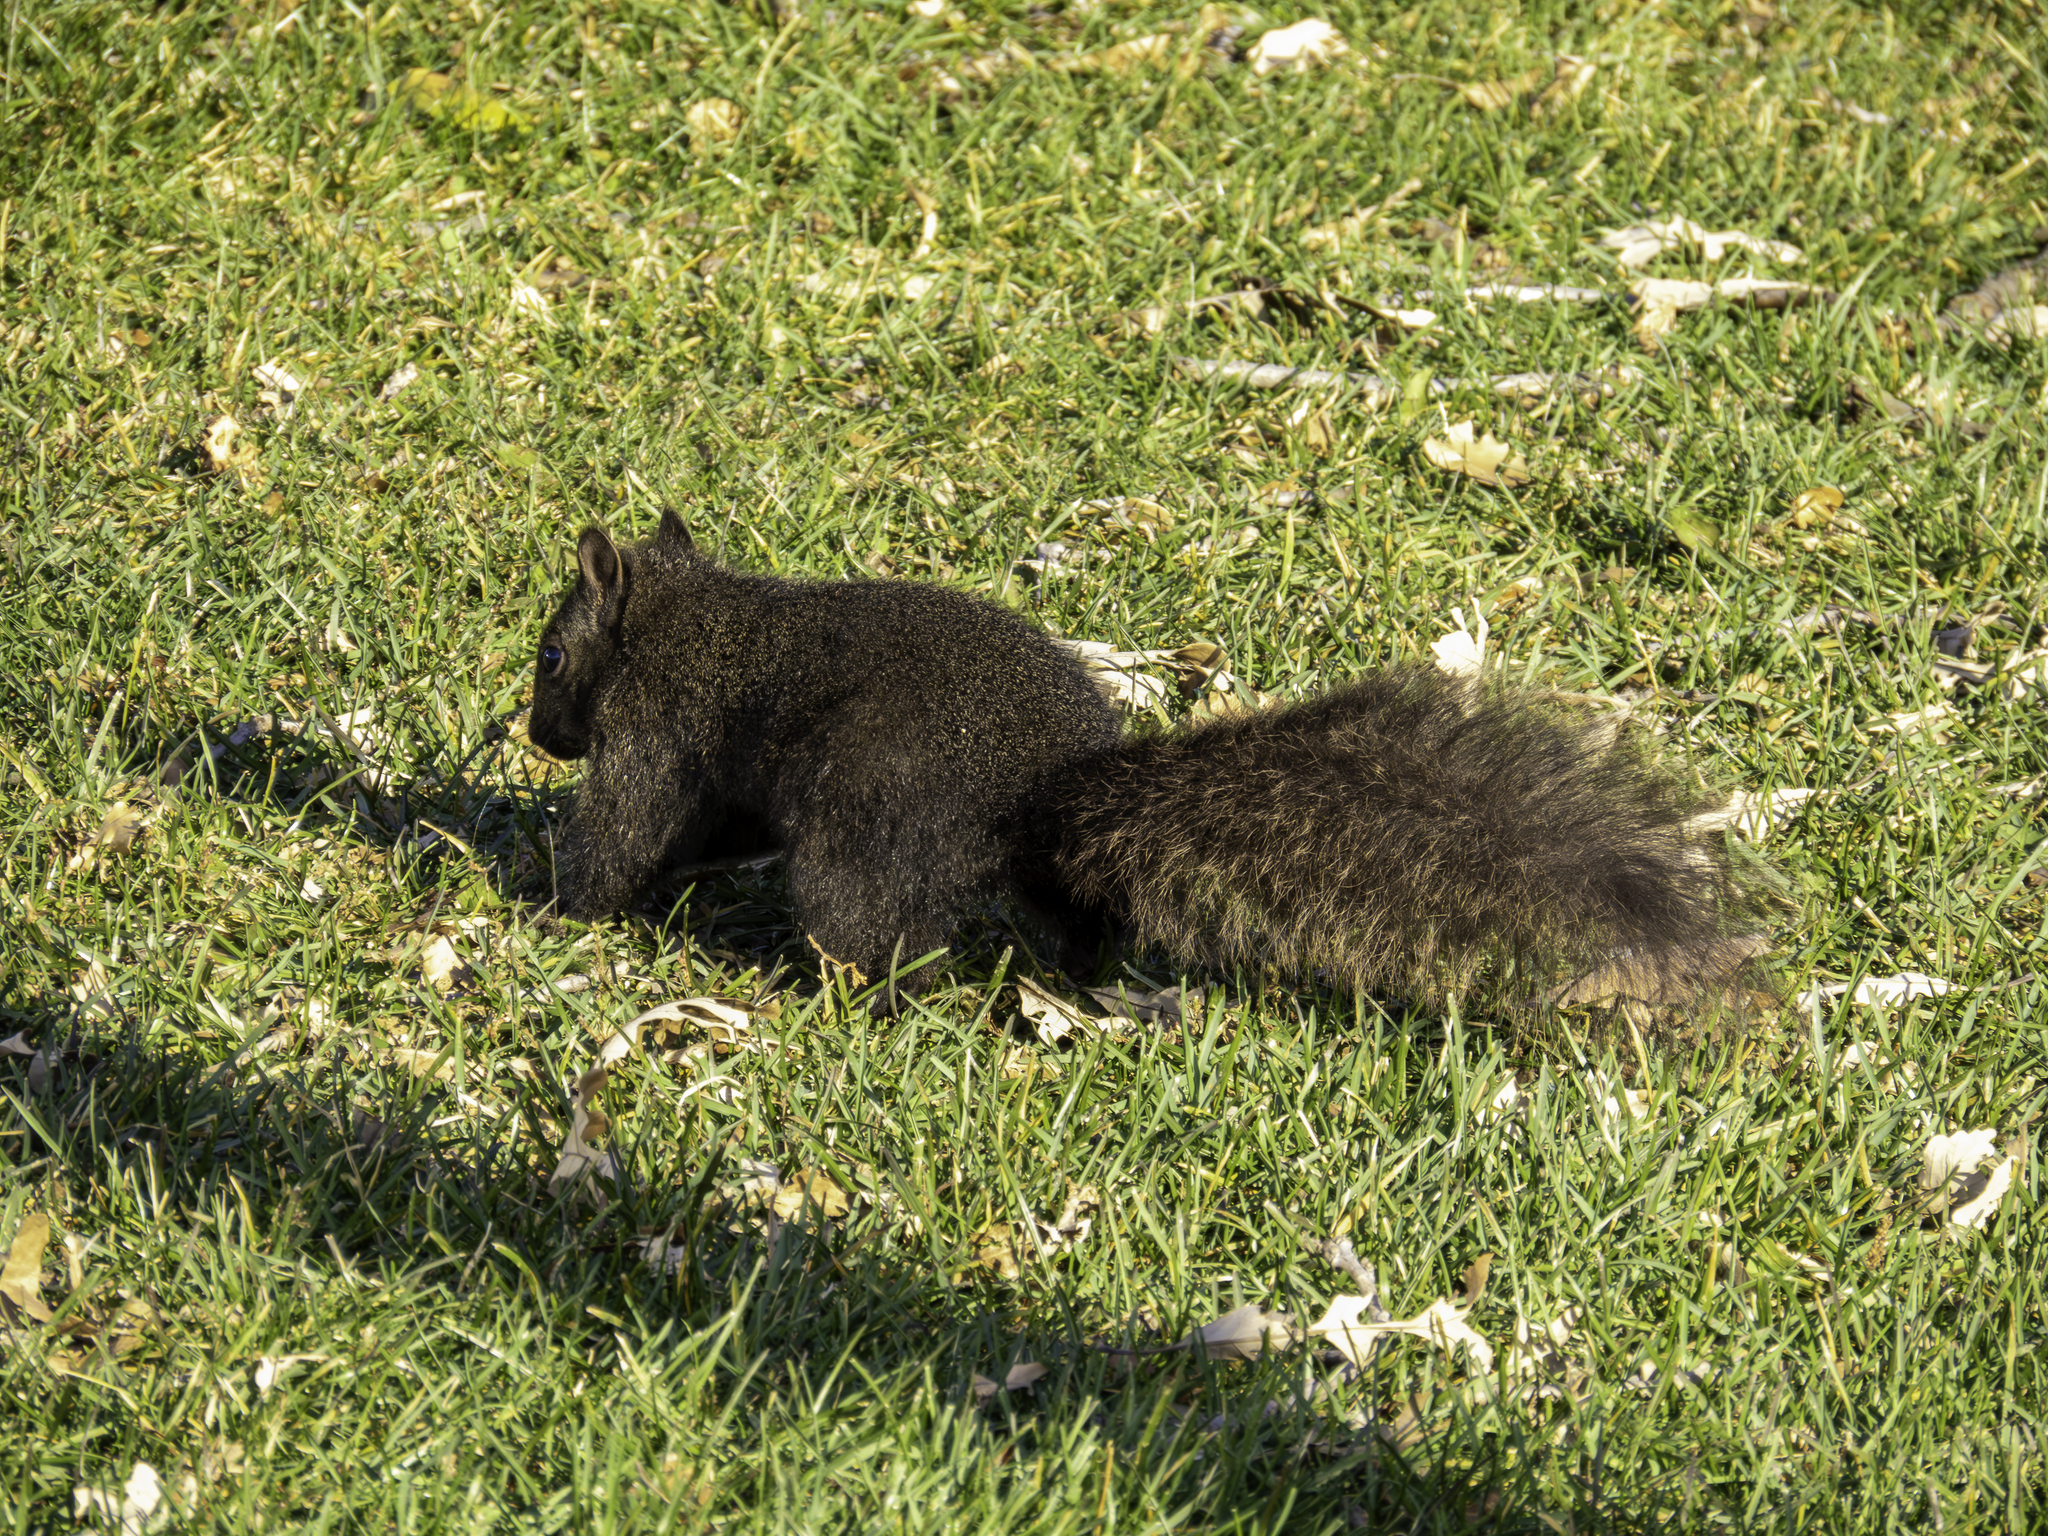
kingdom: Animalia
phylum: Chordata
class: Mammalia
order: Rodentia
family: Sciuridae
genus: Sciurus
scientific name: Sciurus carolinensis
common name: Eastern gray squirrel
